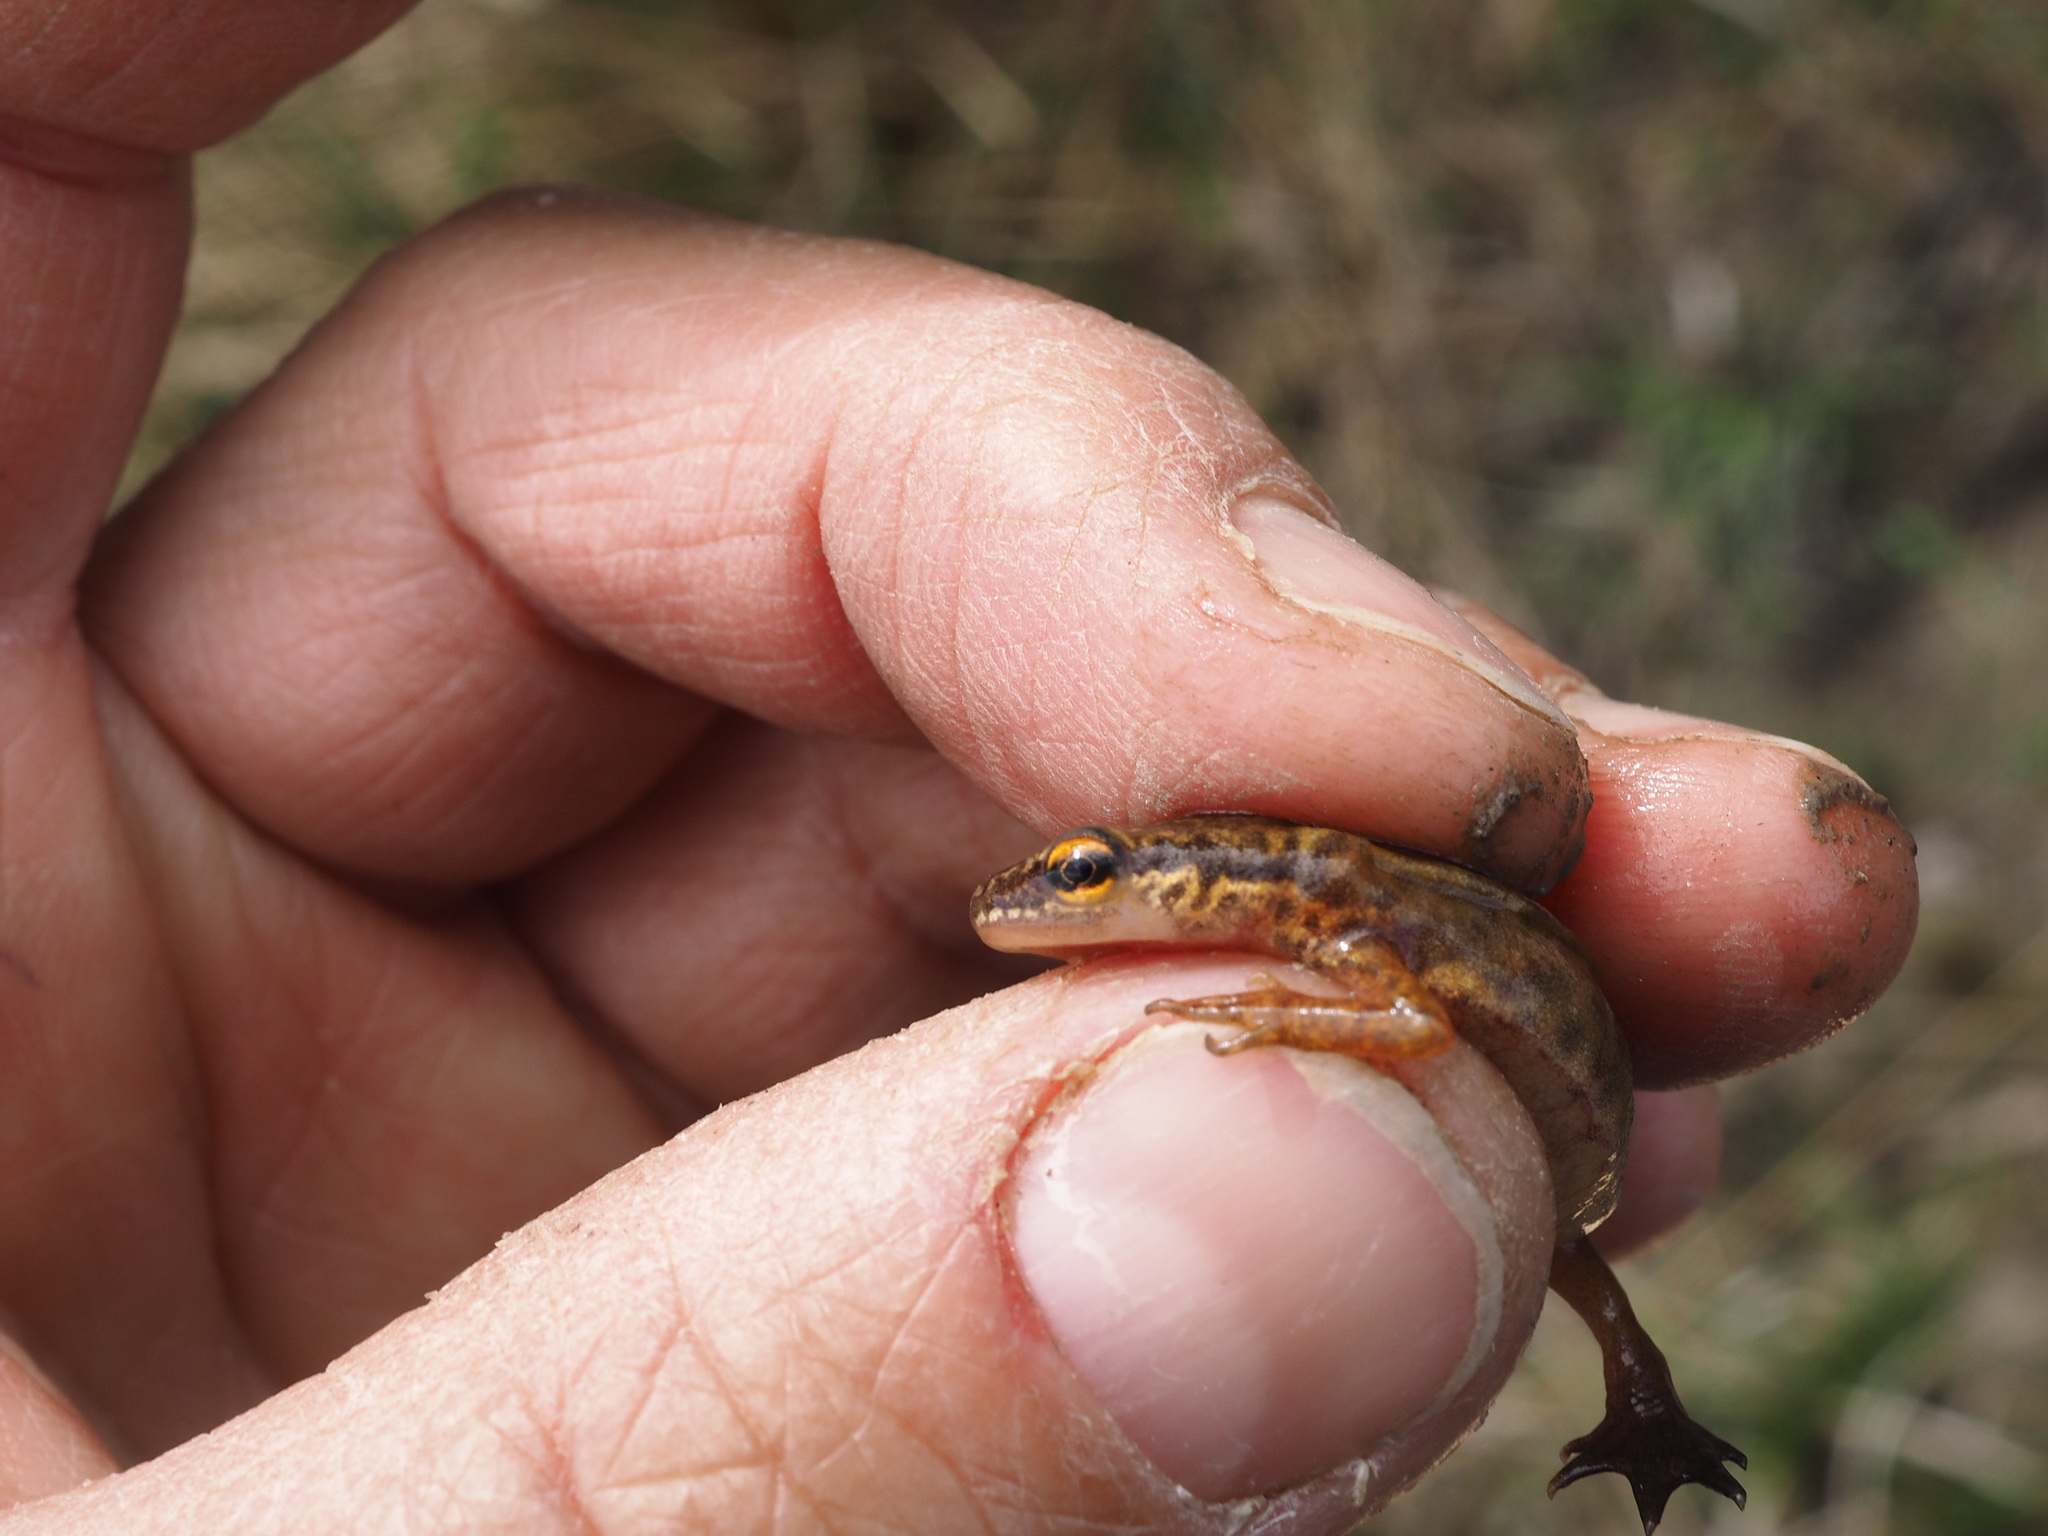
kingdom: Animalia
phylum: Chordata
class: Amphibia
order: Caudata
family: Salamandridae
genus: Lissotriton
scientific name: Lissotriton helveticus
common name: Palmate newt
